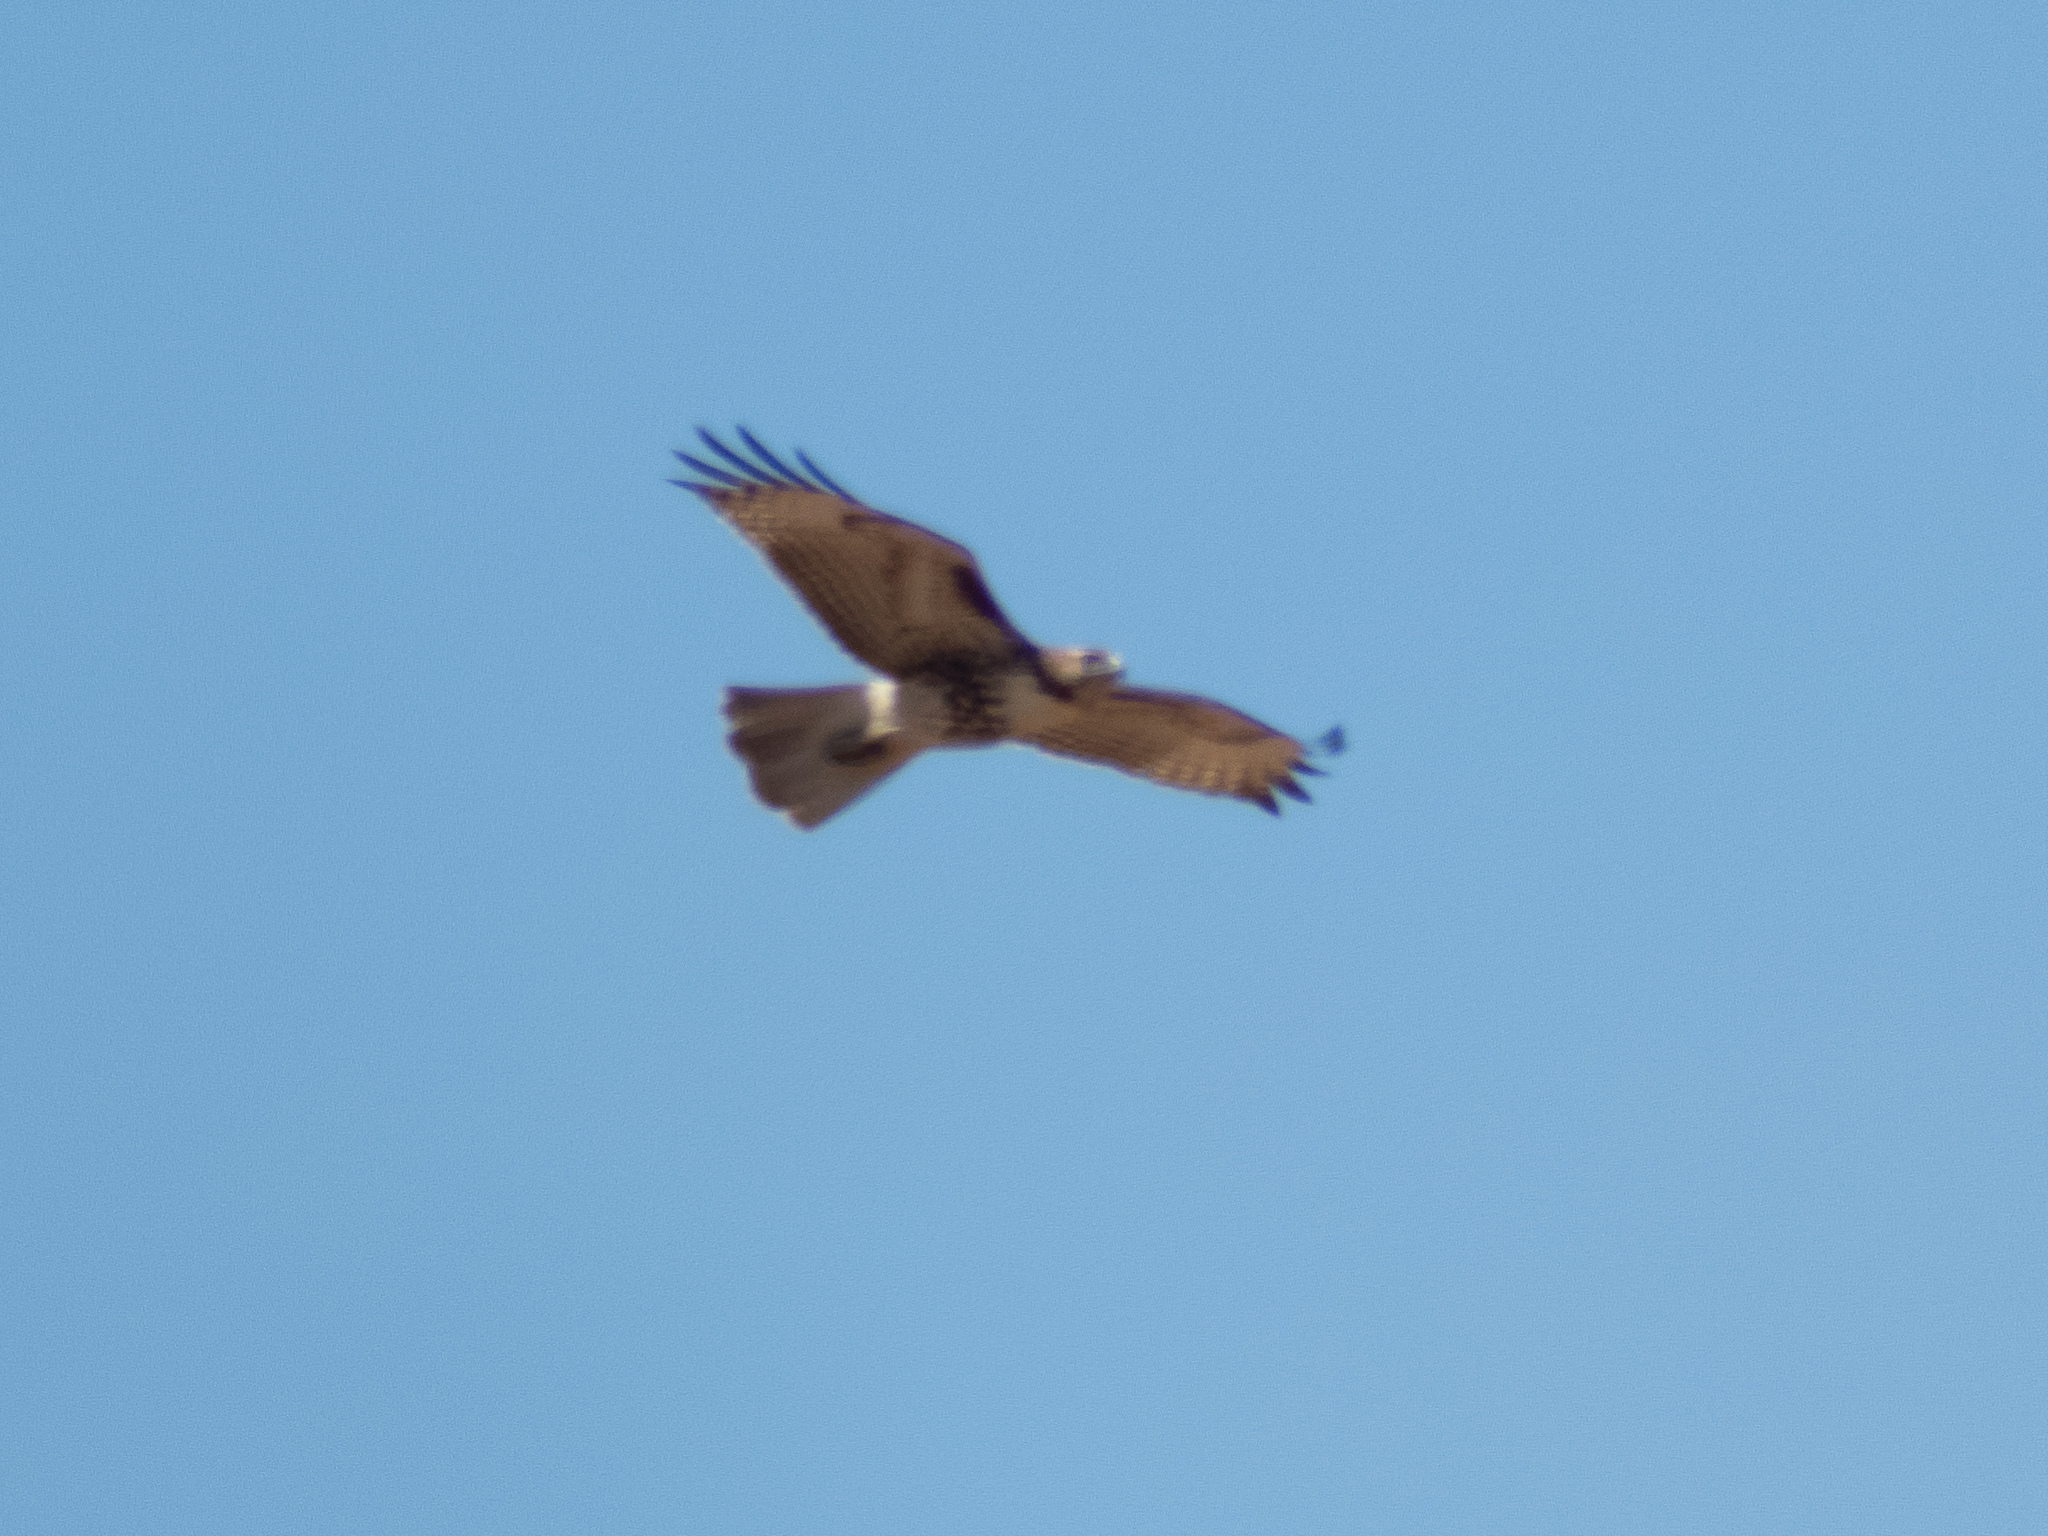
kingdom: Animalia
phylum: Chordata
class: Aves
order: Accipitriformes
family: Accipitridae
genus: Buteo
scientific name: Buteo jamaicensis
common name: Red-tailed hawk
